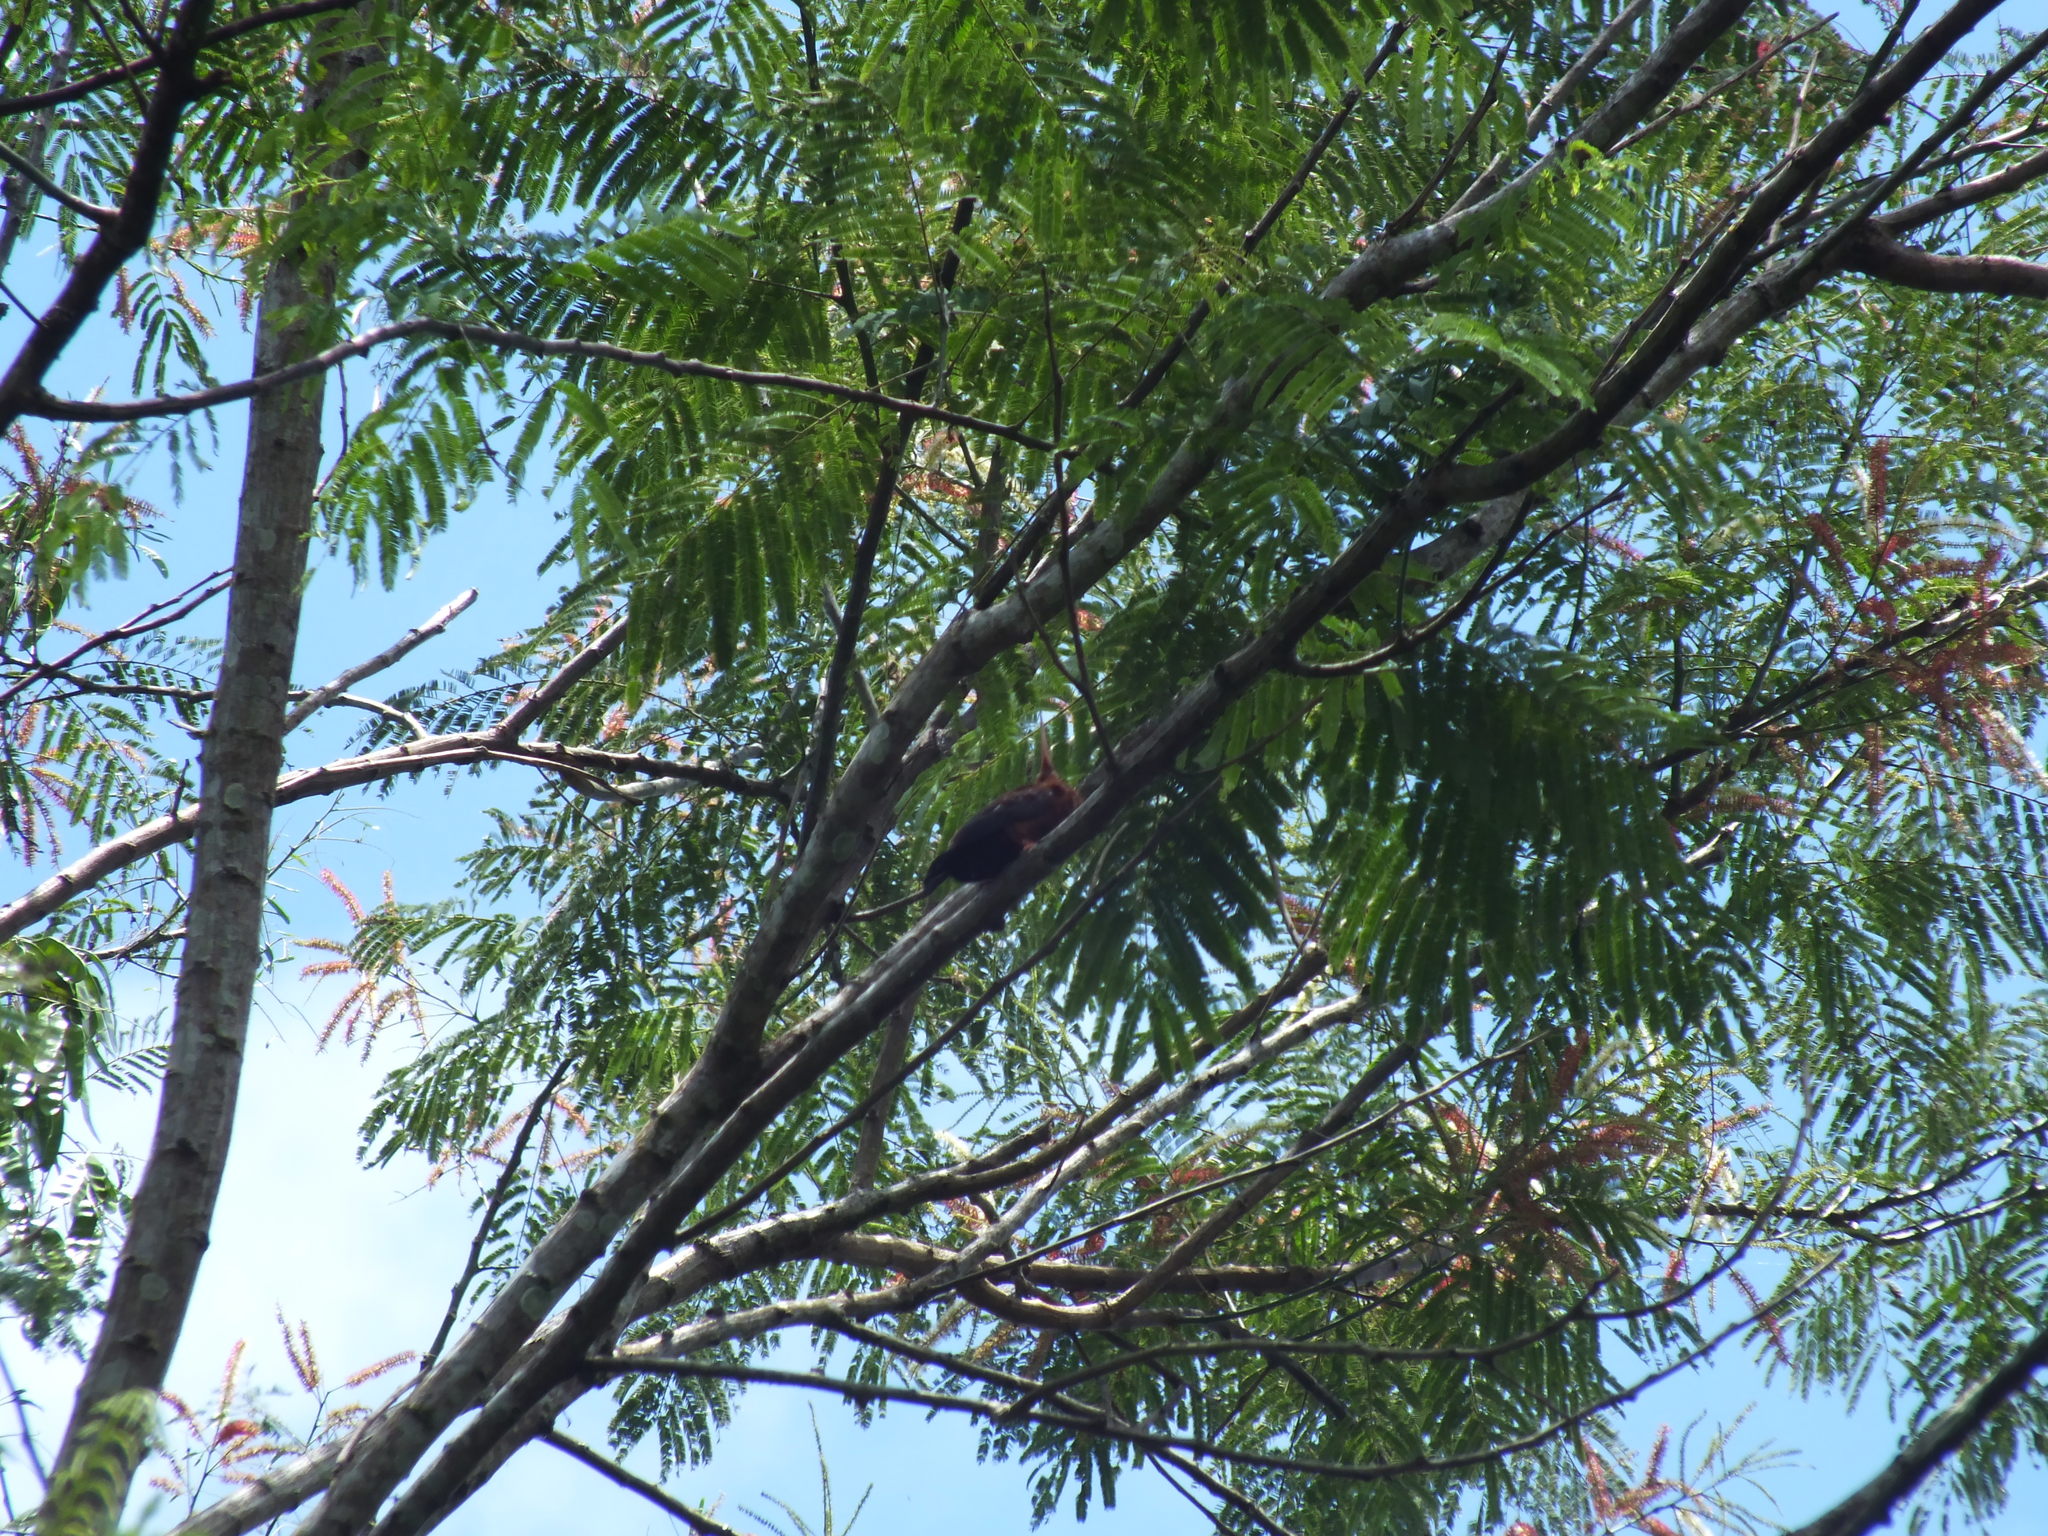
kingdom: Animalia
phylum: Chordata
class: Aves
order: Piciformes
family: Galbulidae
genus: Galbalcyrhynchus
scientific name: Galbalcyrhynchus leucotis
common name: White-eared jacamar
